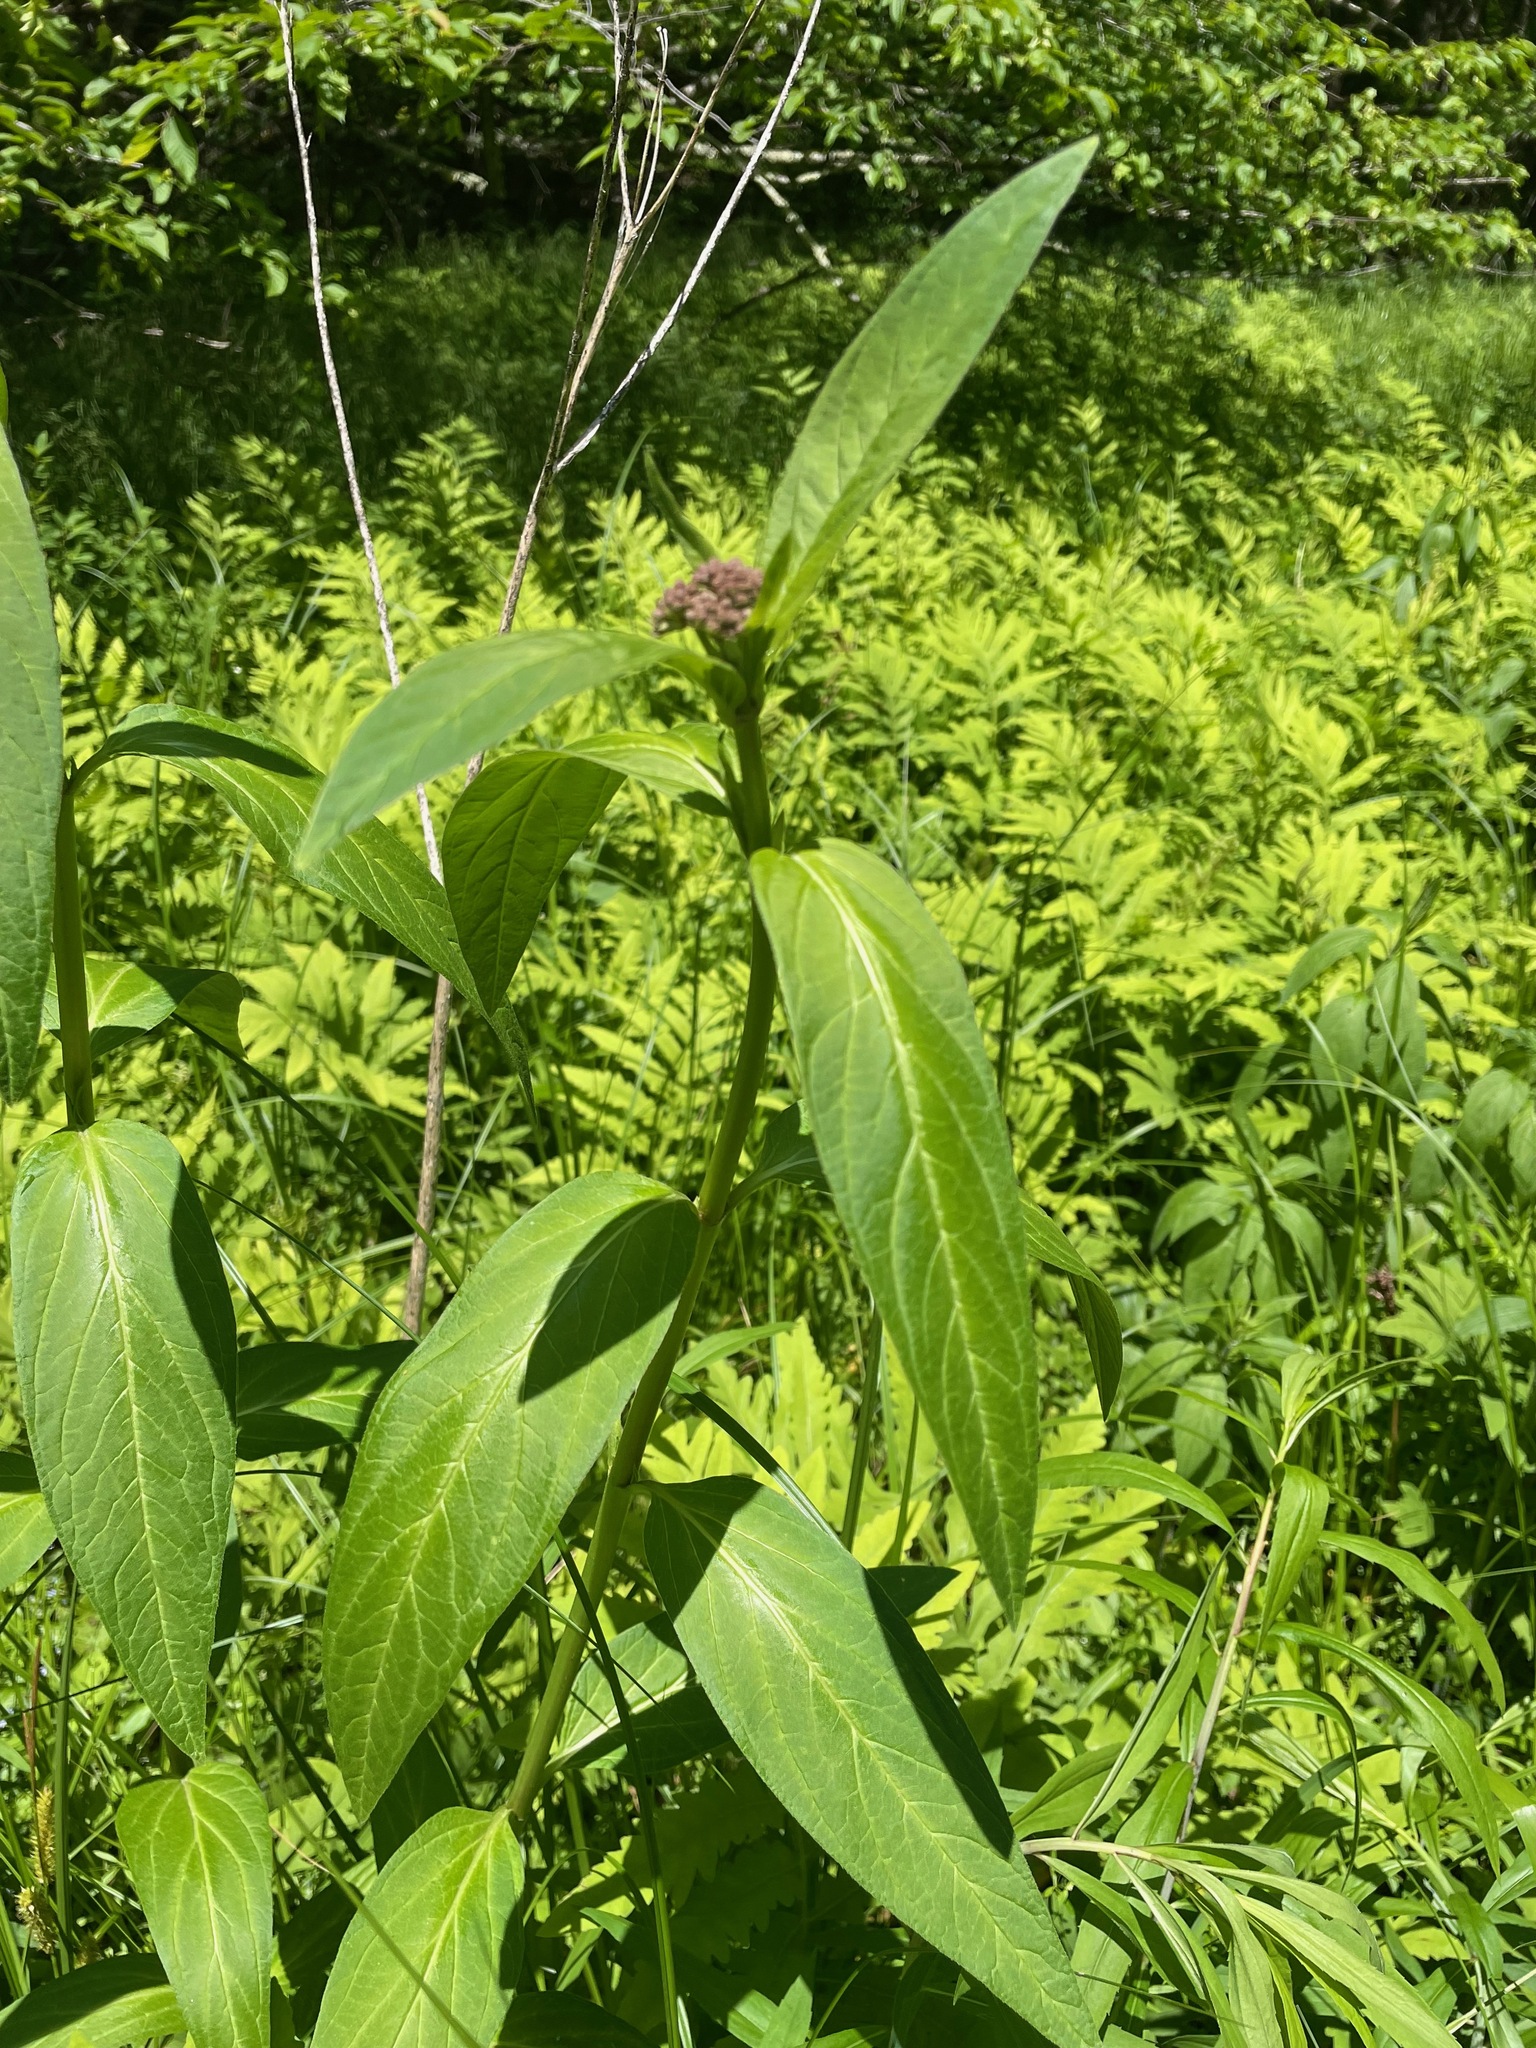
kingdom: Plantae
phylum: Tracheophyta
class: Magnoliopsida
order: Gentianales
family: Apocynaceae
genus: Asclepias
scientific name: Asclepias incarnata
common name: Swamp milkweed
